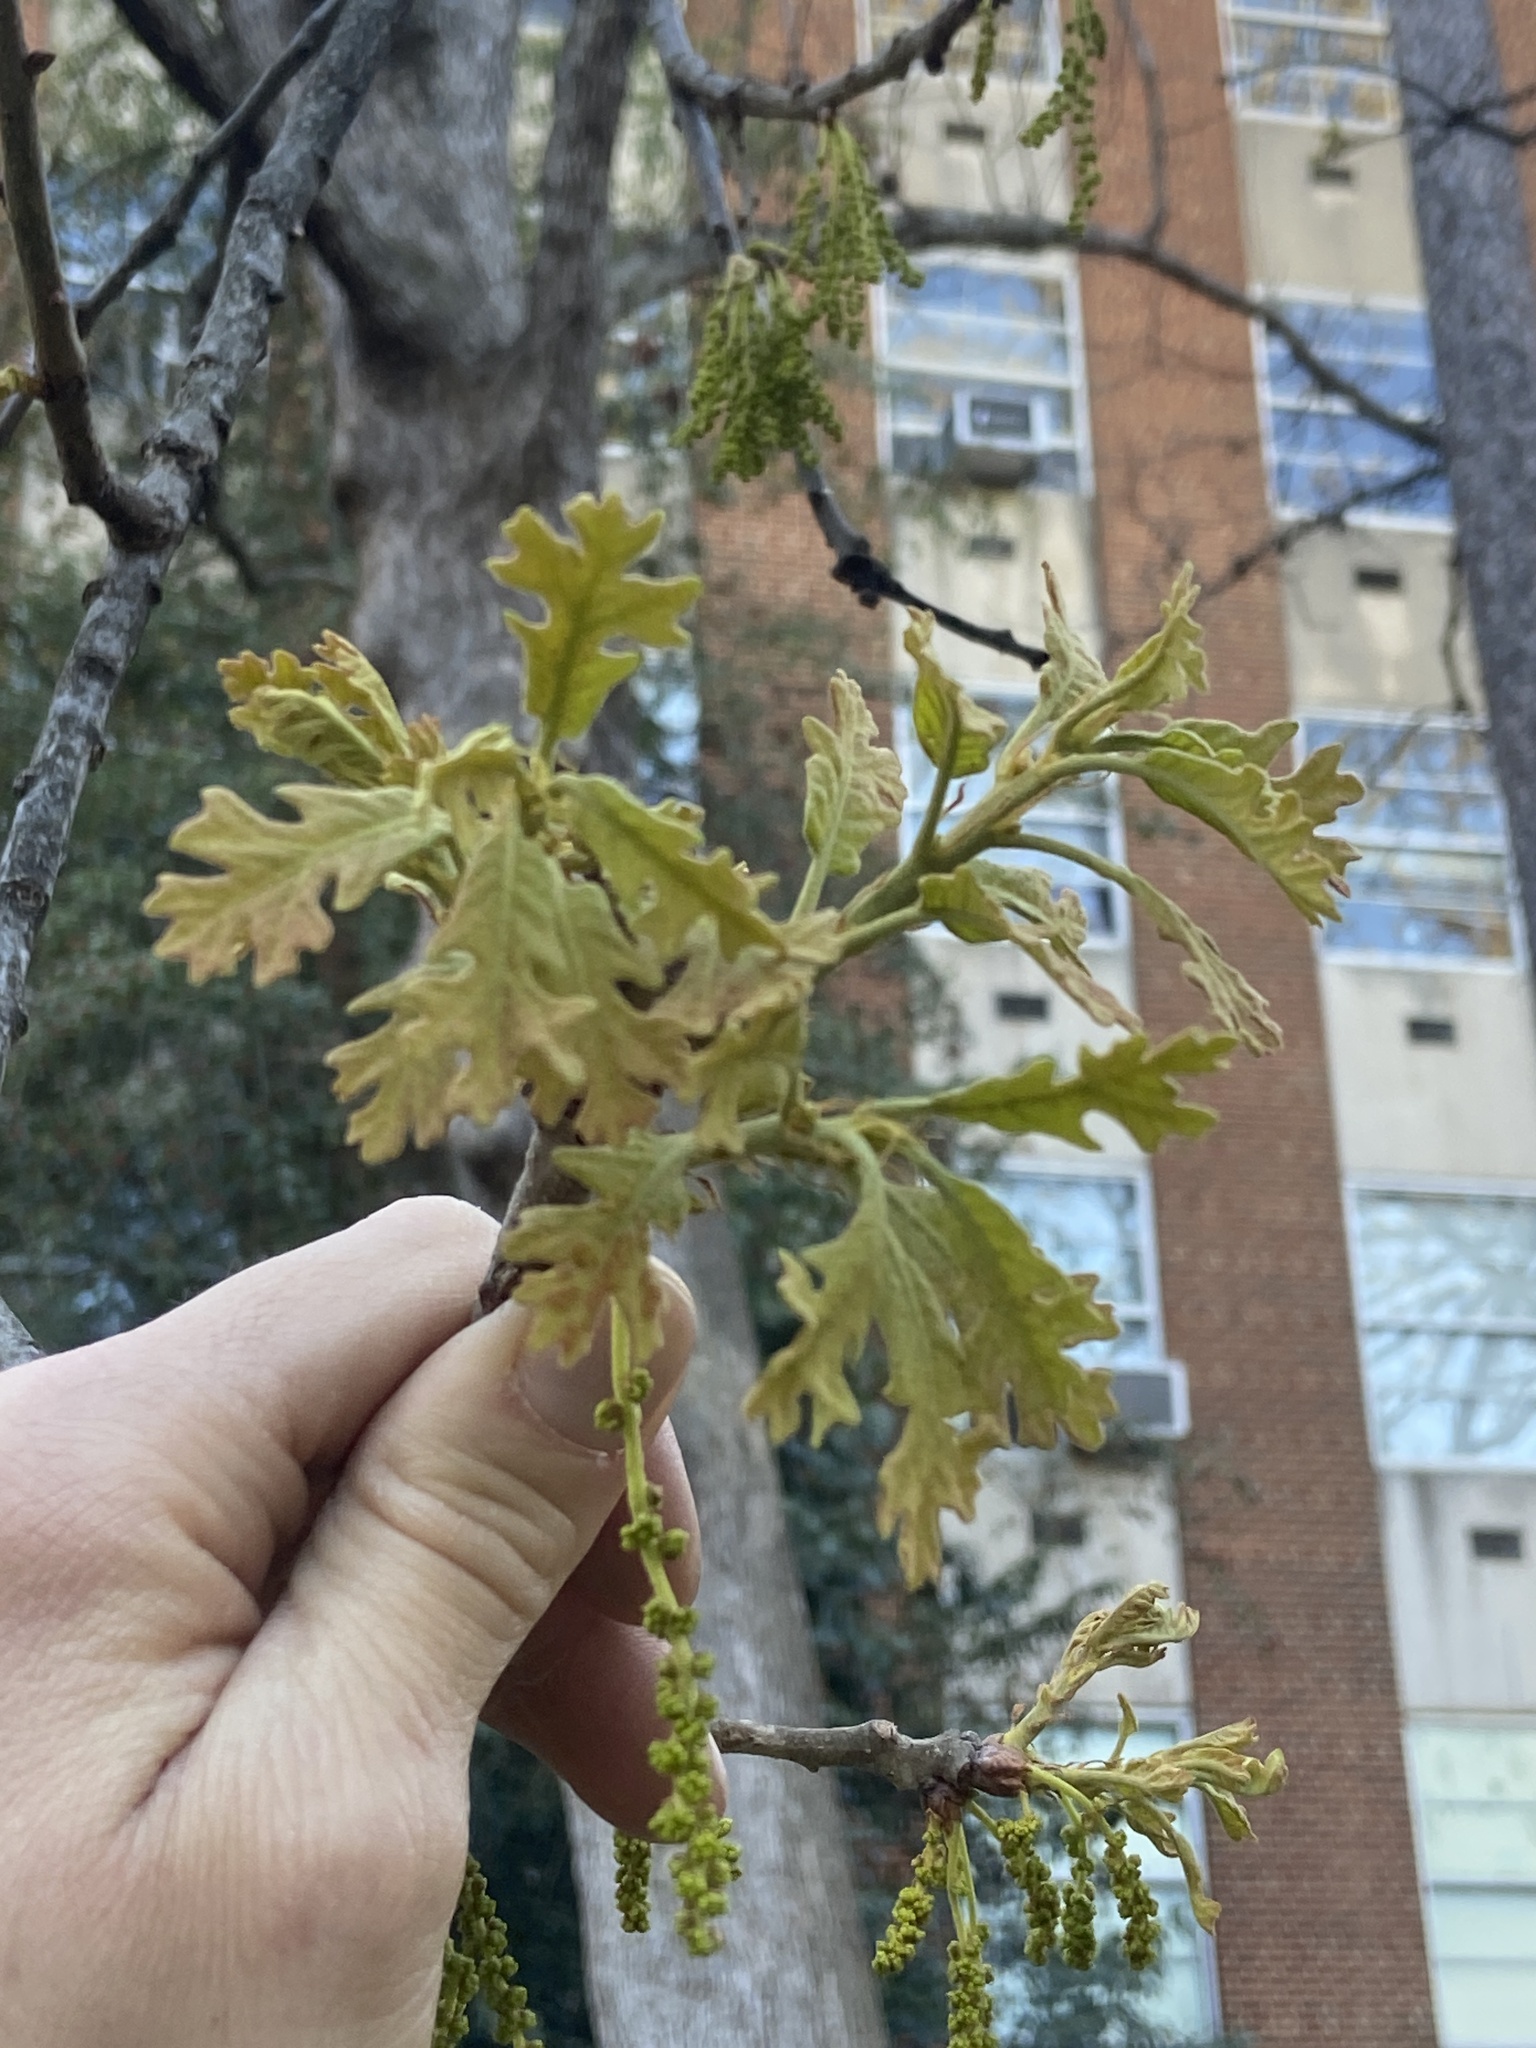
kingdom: Plantae
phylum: Tracheophyta
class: Magnoliopsida
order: Fagales
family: Fagaceae
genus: Quercus
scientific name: Quercus stellata
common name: Post oak
